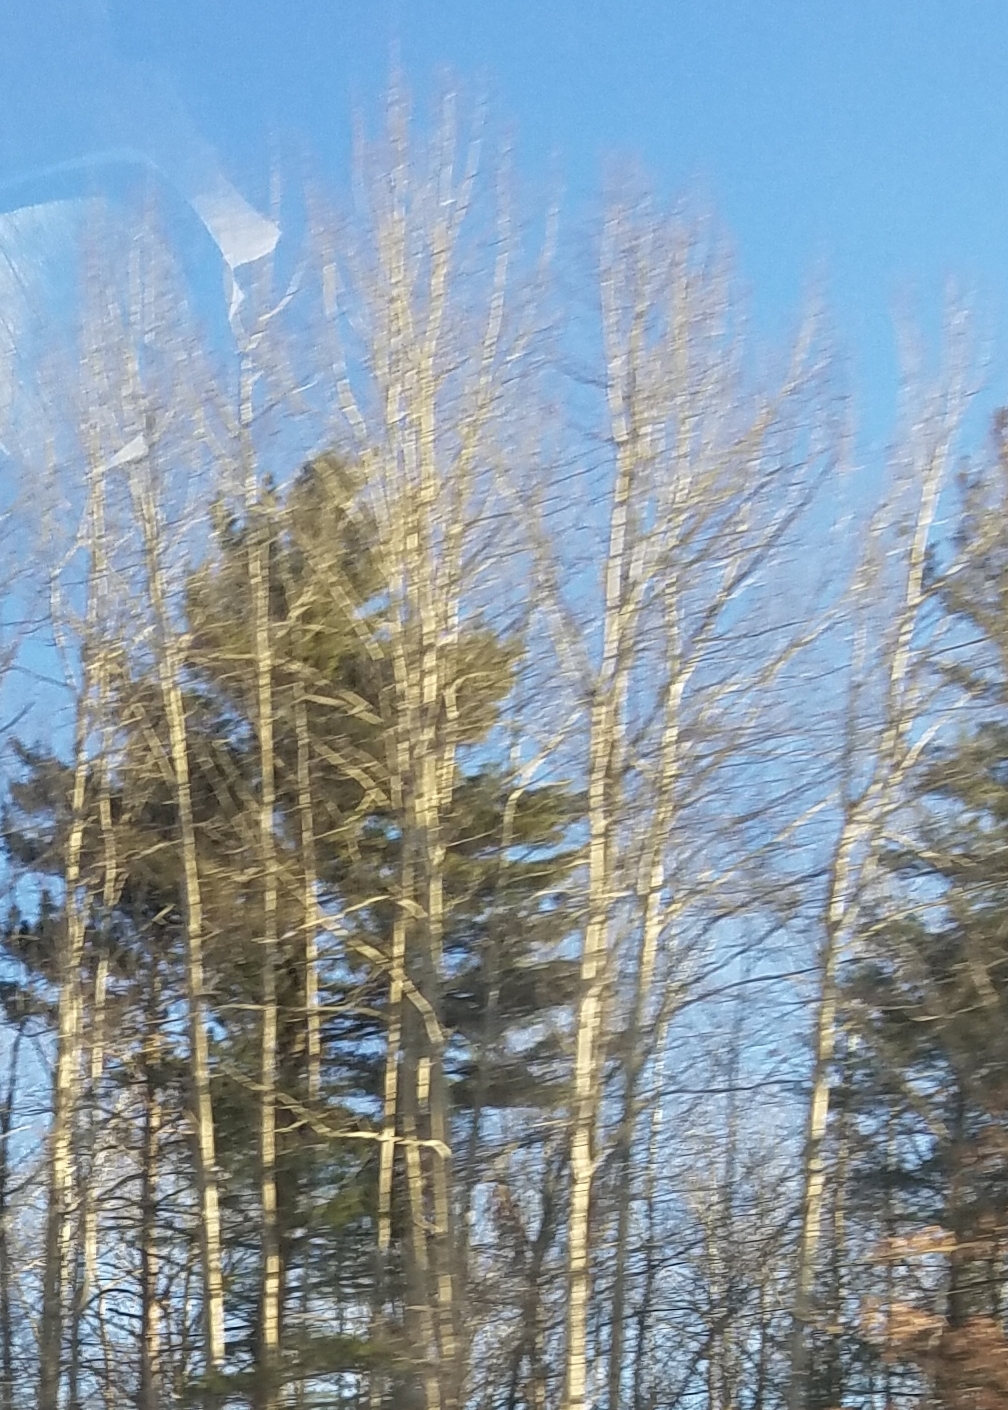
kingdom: Plantae
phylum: Tracheophyta
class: Magnoliopsida
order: Malpighiales
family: Salicaceae
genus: Populus
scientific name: Populus tremuloides
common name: Quaking aspen
